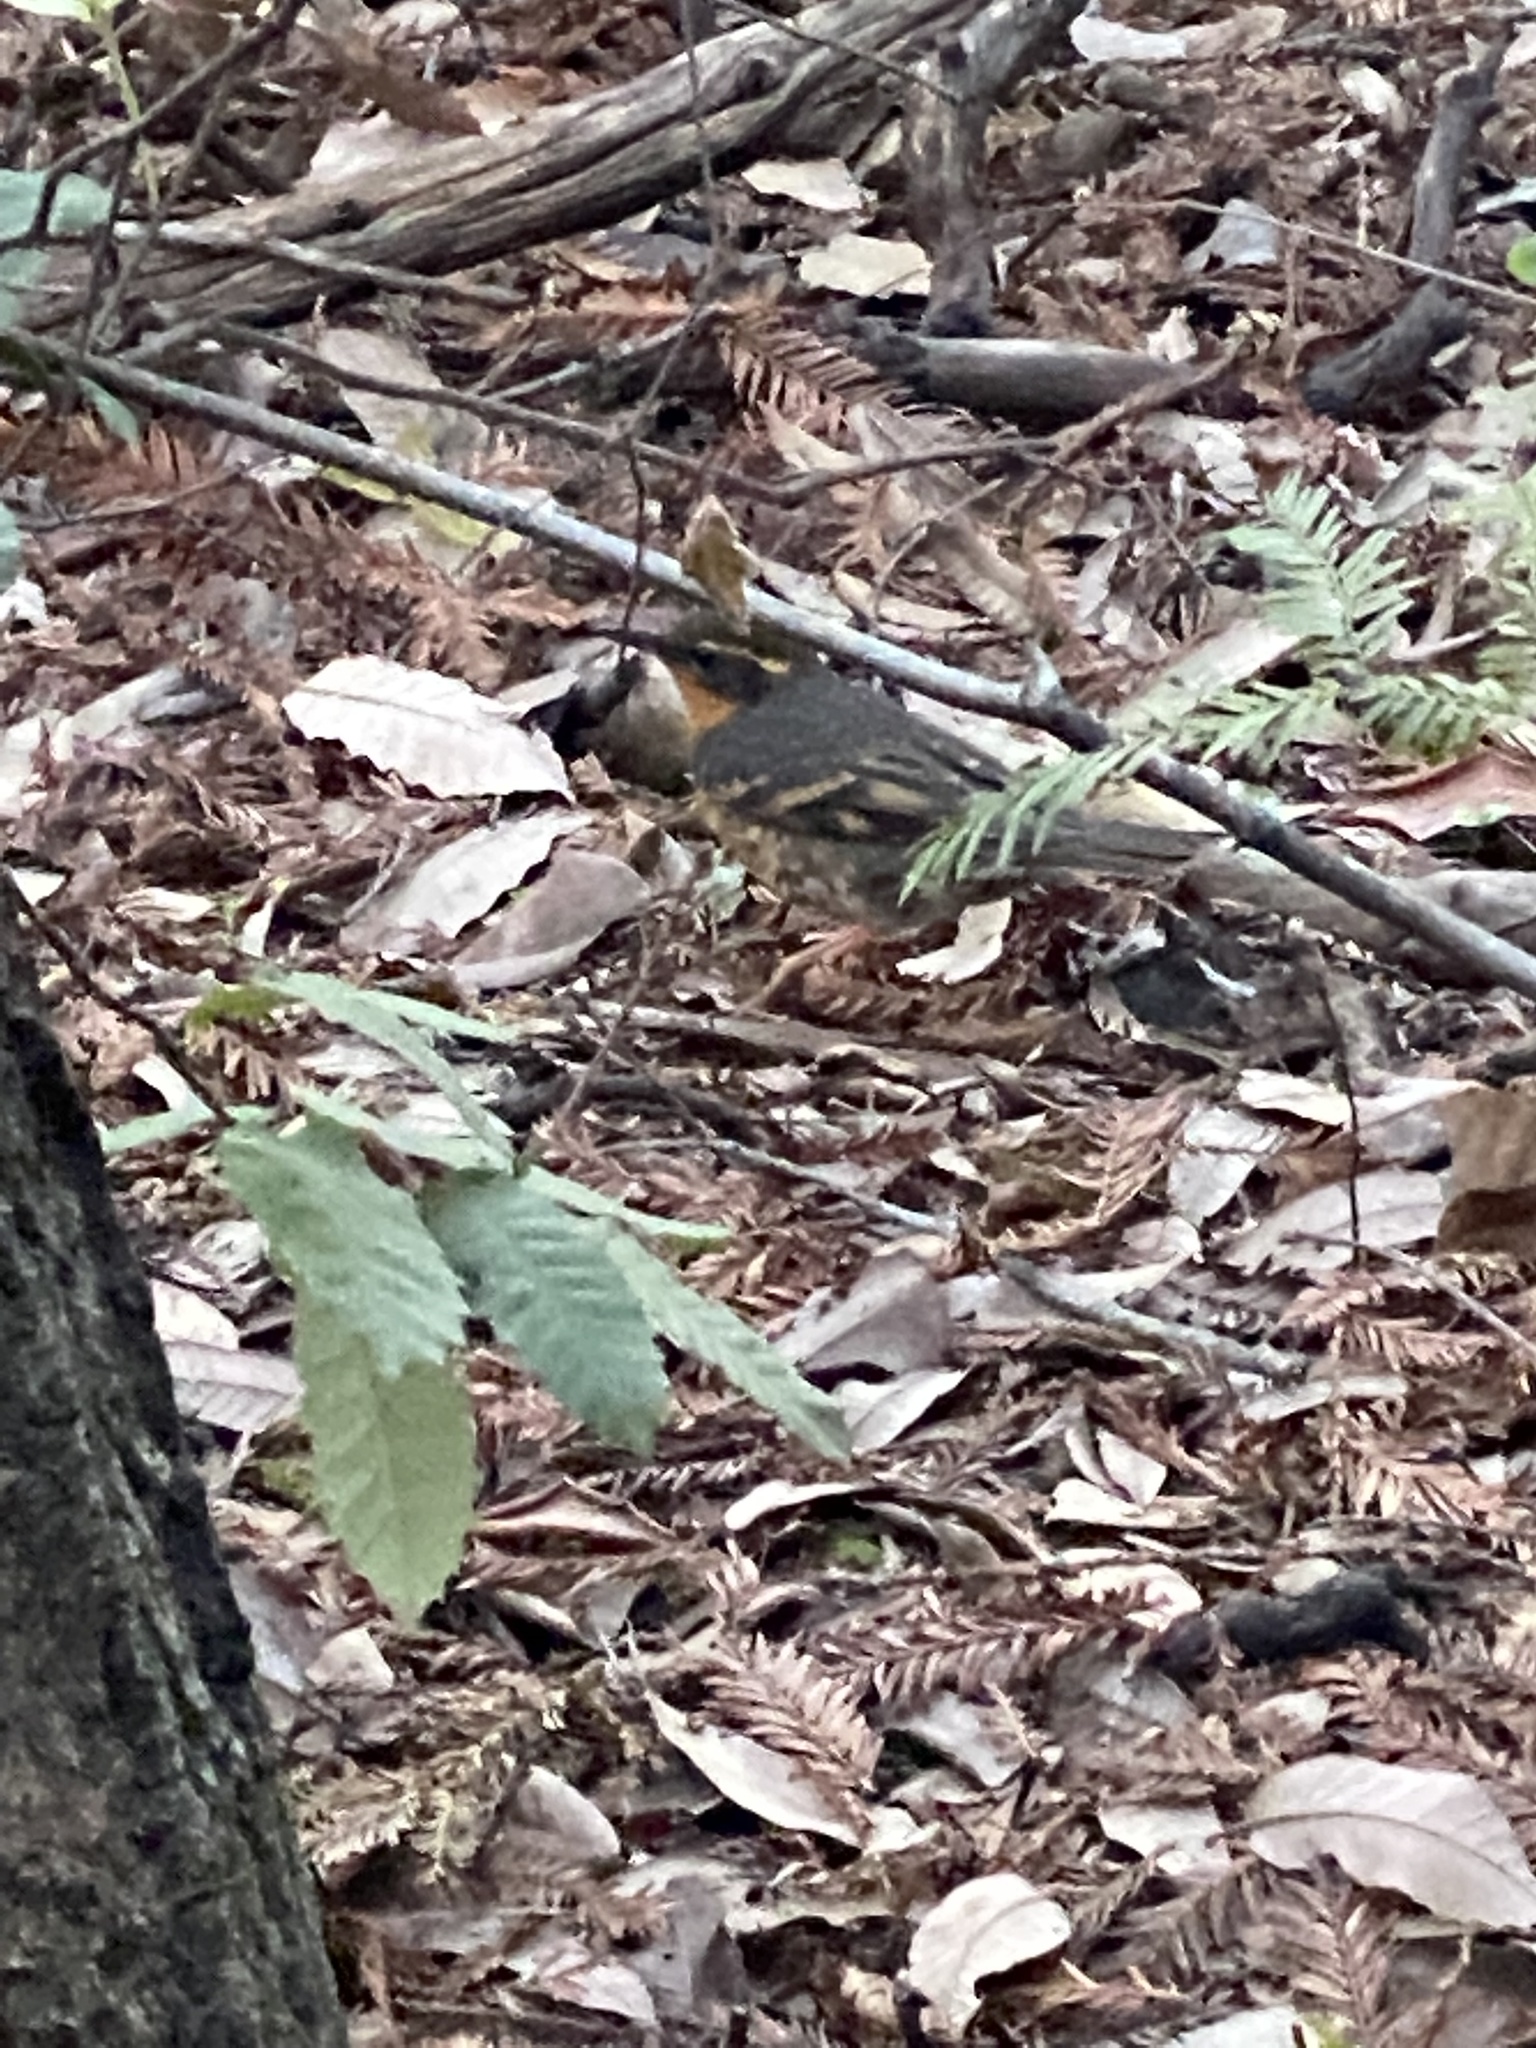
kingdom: Animalia
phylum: Chordata
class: Aves
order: Passeriformes
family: Turdidae
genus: Ixoreus
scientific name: Ixoreus naevius
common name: Varied thrush
